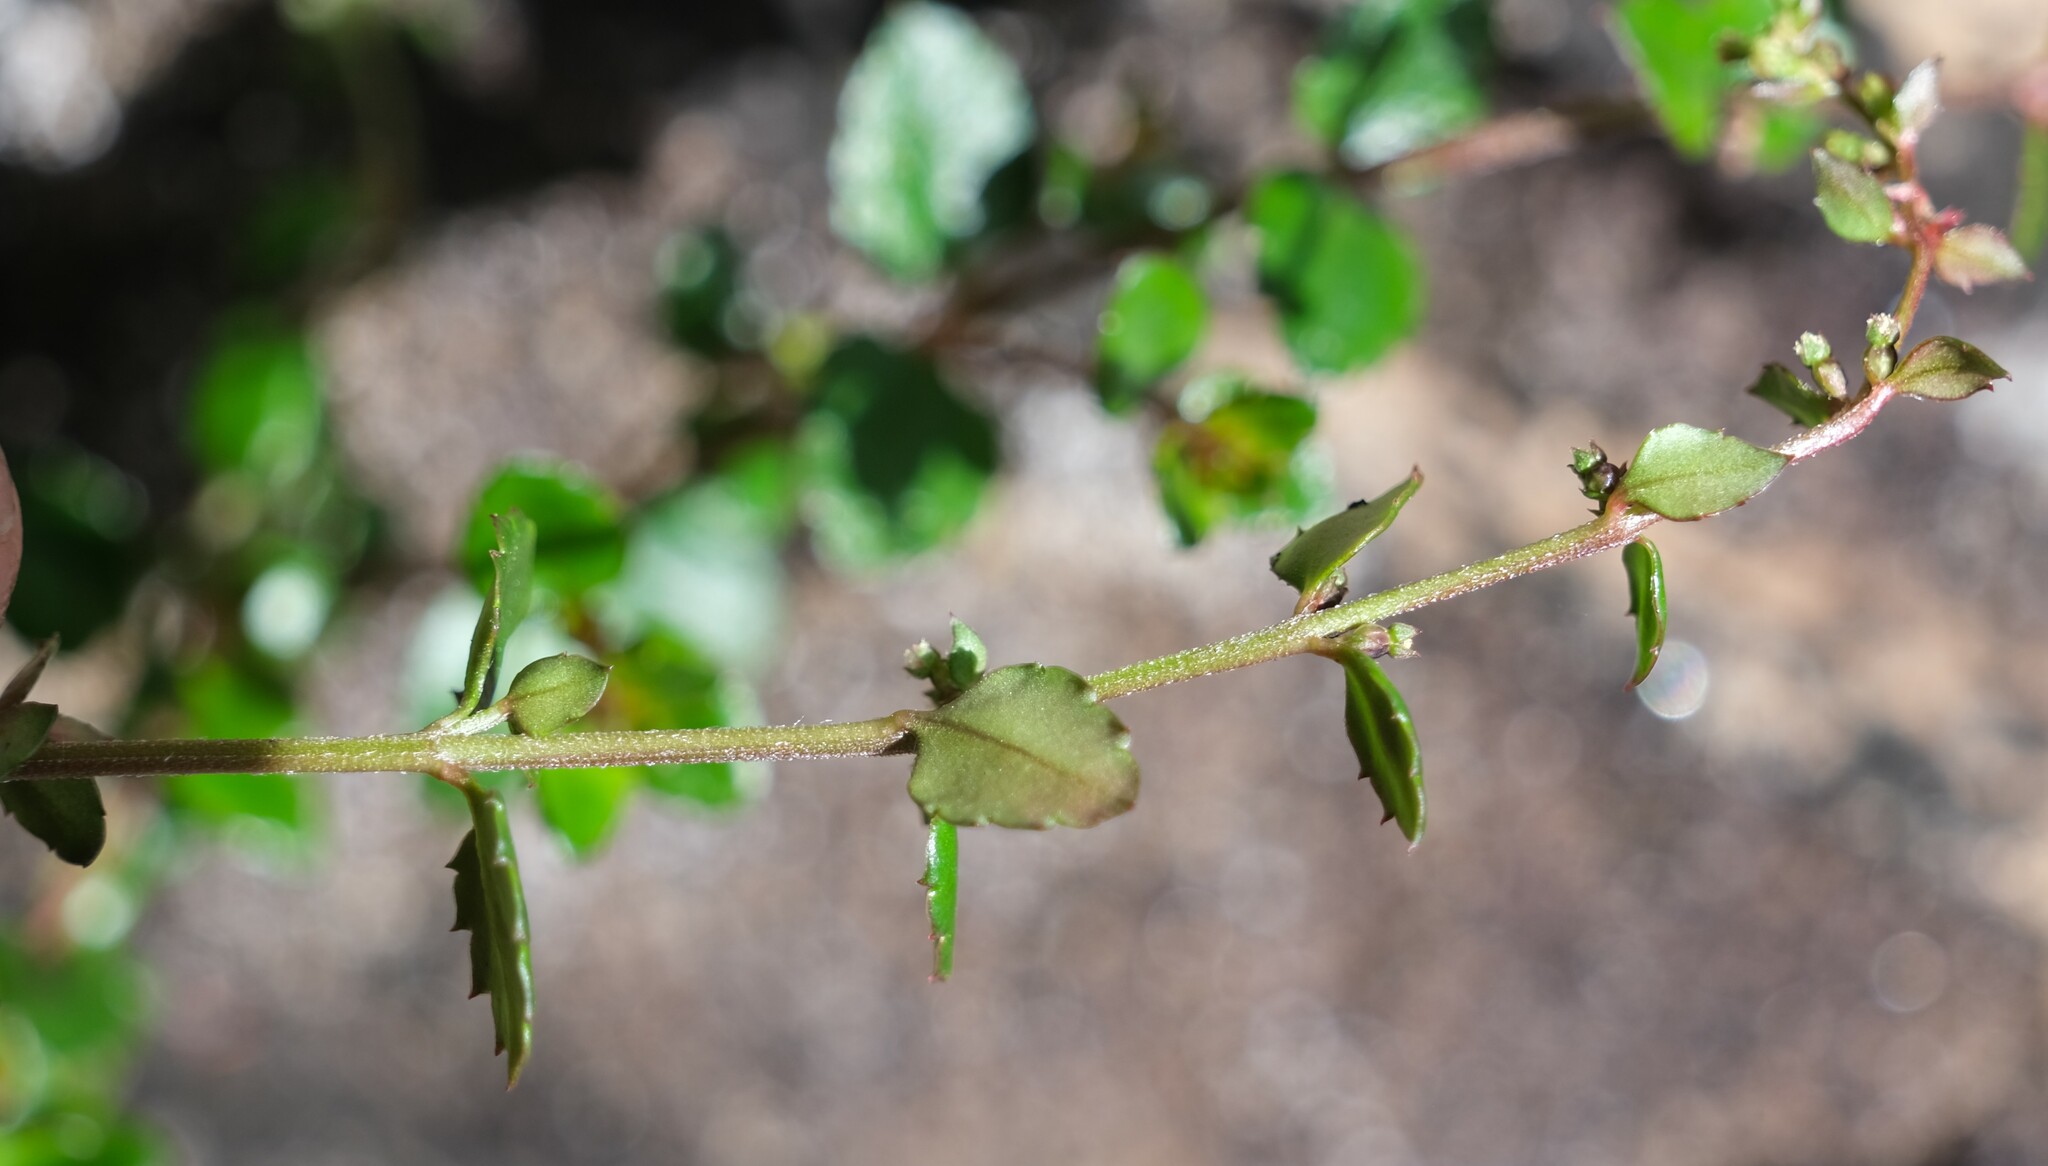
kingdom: Plantae
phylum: Tracheophyta
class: Magnoliopsida
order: Saxifragales
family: Haloragaceae
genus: Gonocarpus
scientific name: Gonocarpus montanus
